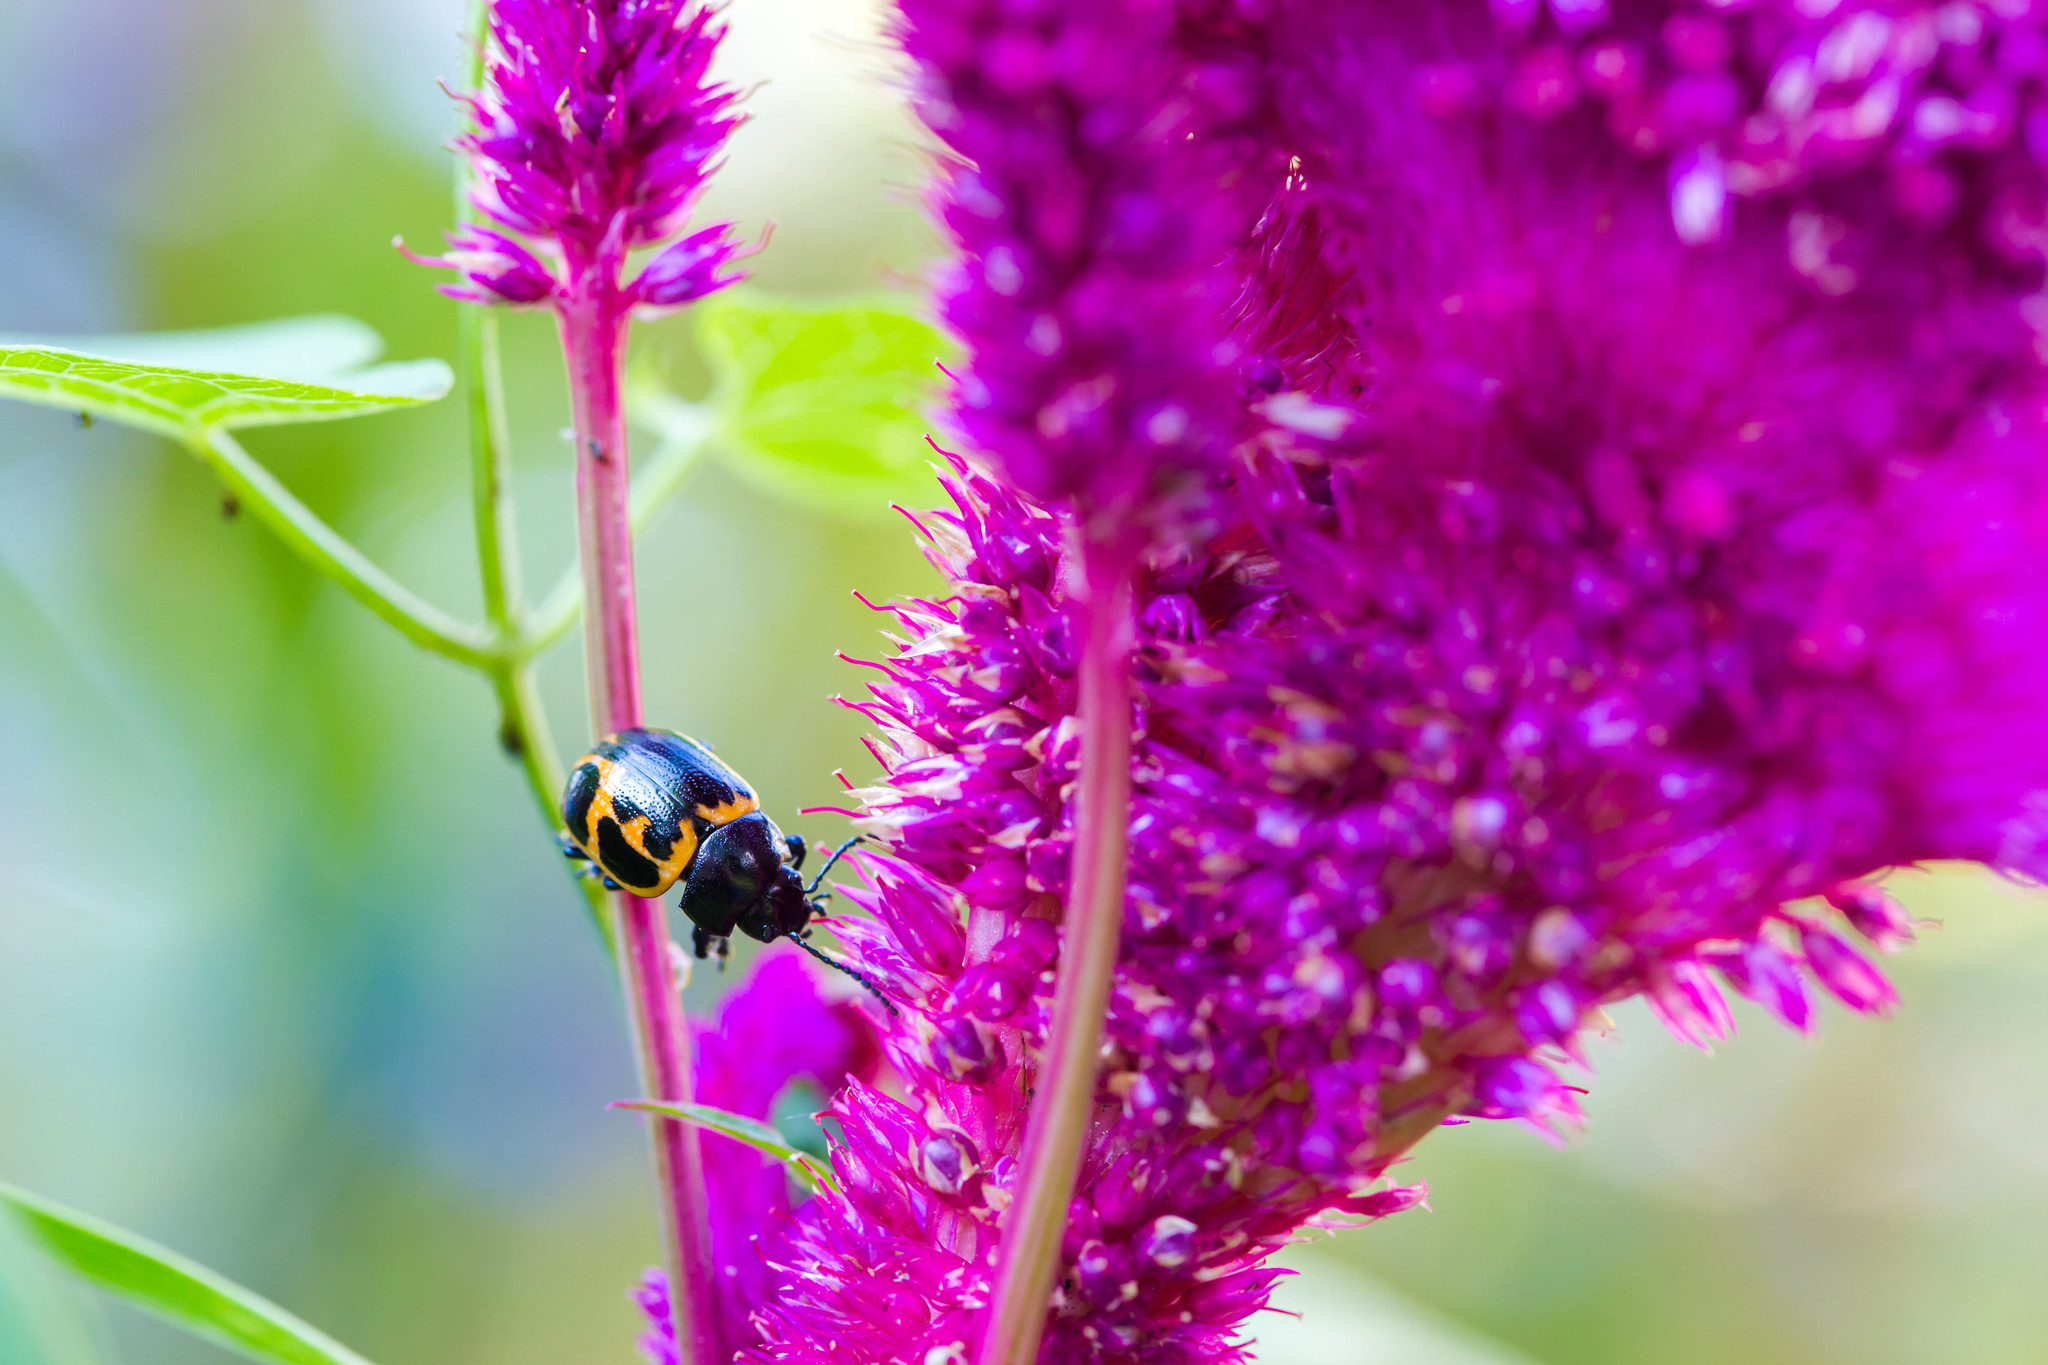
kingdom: Animalia
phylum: Arthropoda
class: Insecta
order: Coleoptera
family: Chrysomelidae
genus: Labidomera
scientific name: Labidomera clivicollis
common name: Swamp milkweed leaf beetle
